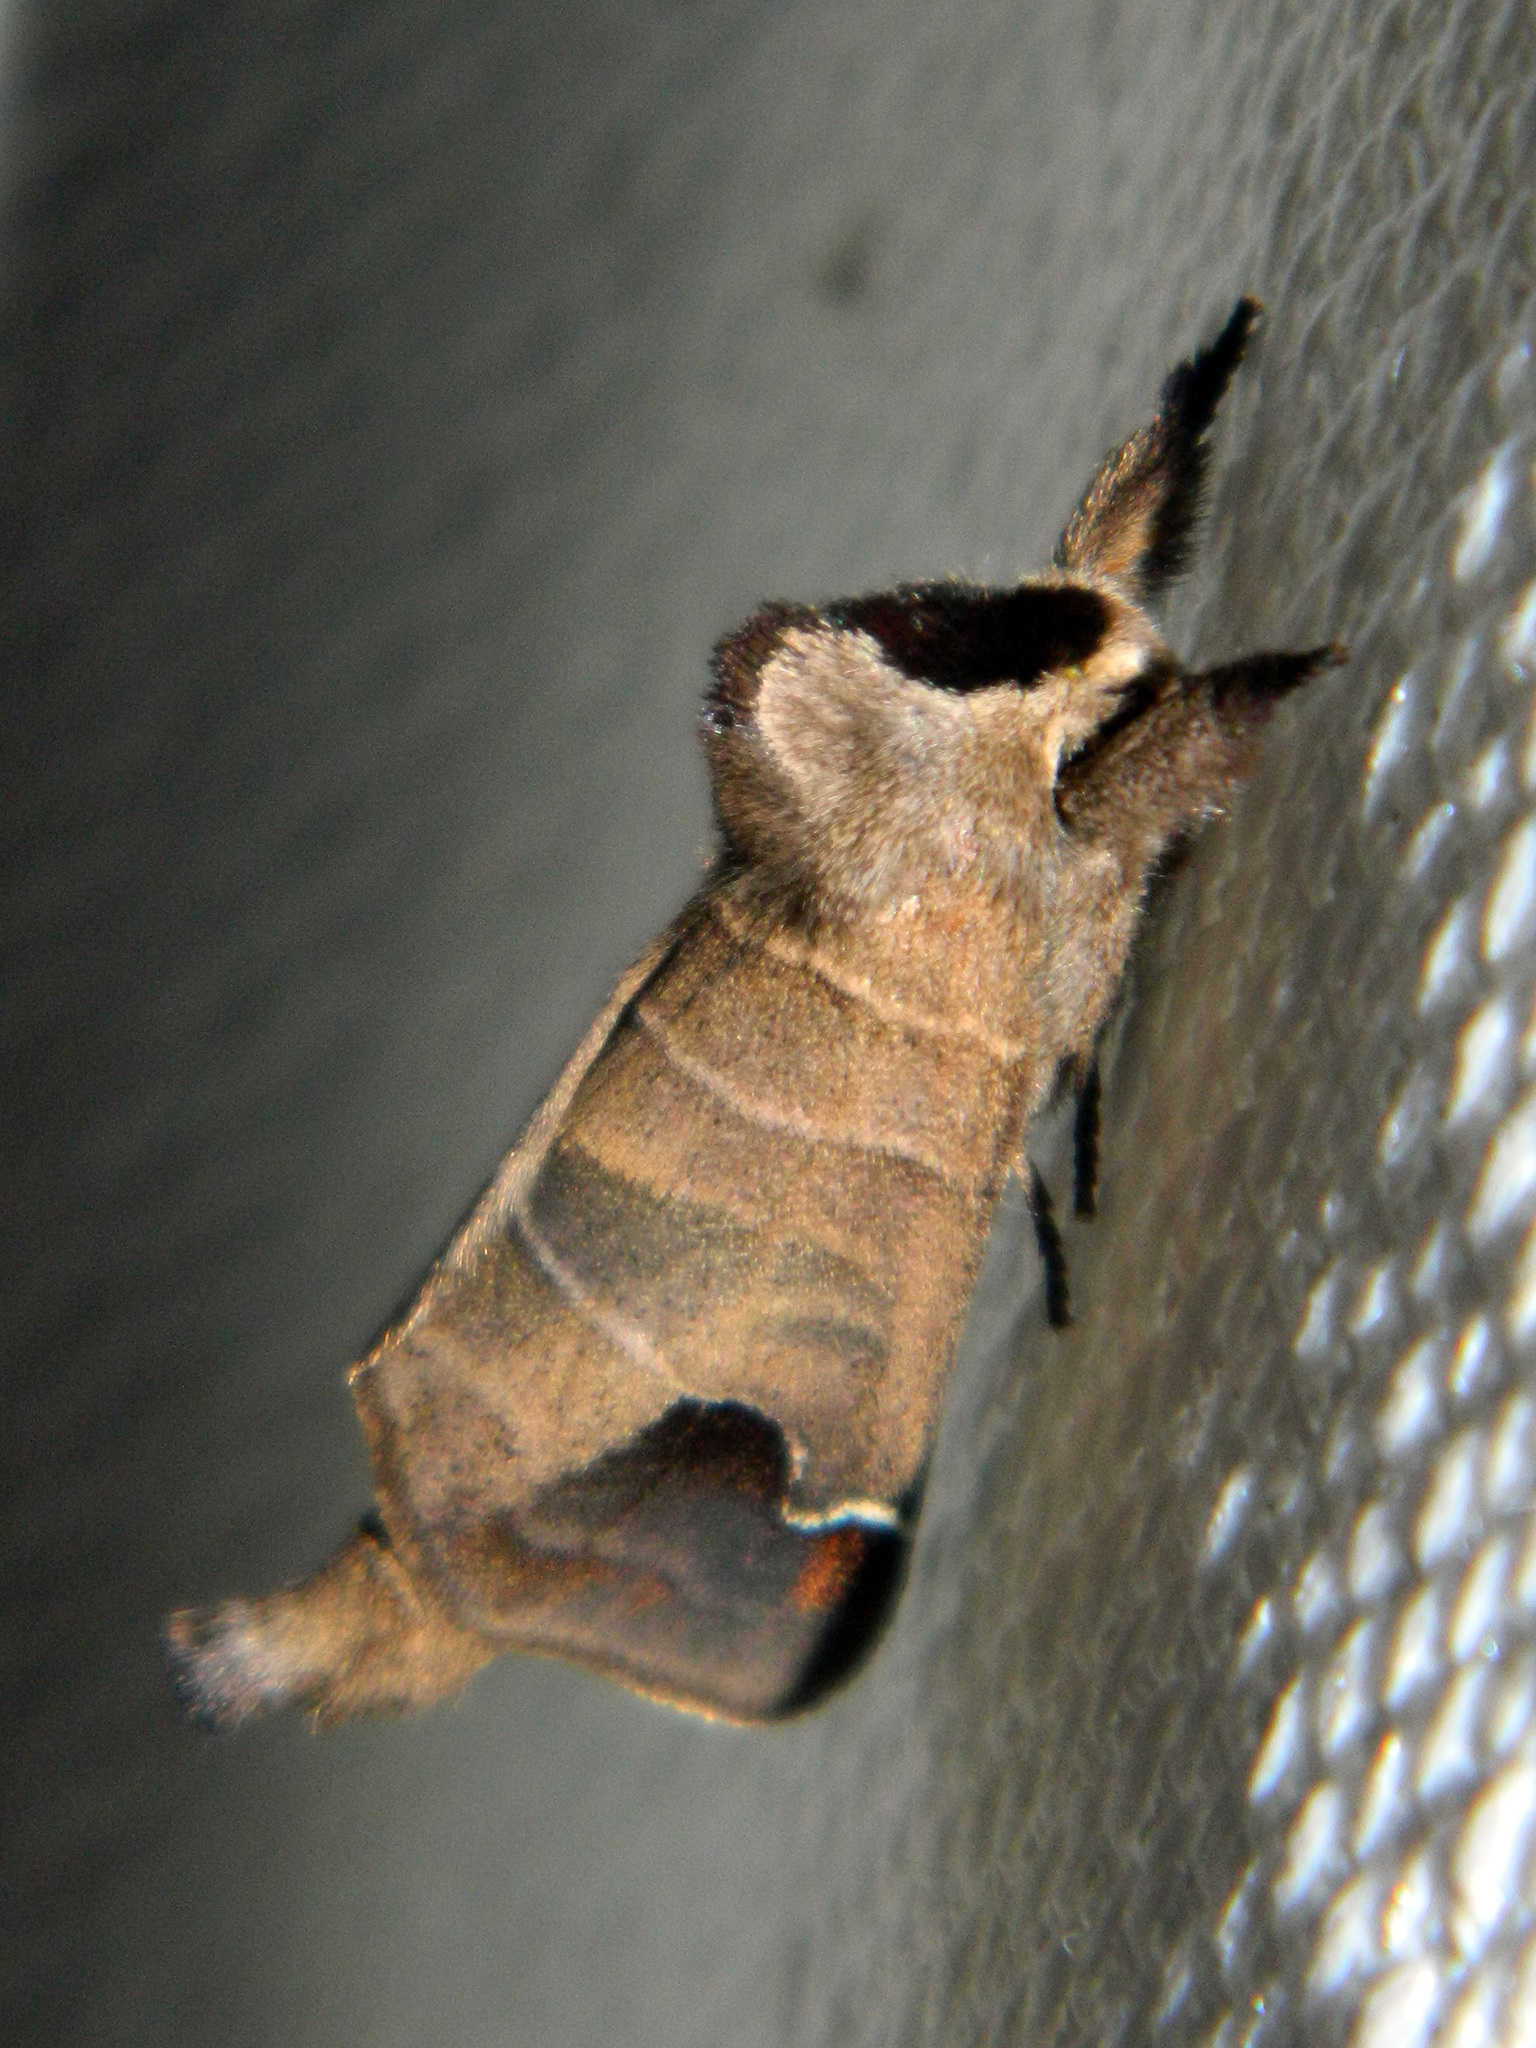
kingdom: Animalia
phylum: Arthropoda
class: Insecta
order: Lepidoptera
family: Notodontidae
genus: Clostera
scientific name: Clostera albosigma
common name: Sigmoid prominent
